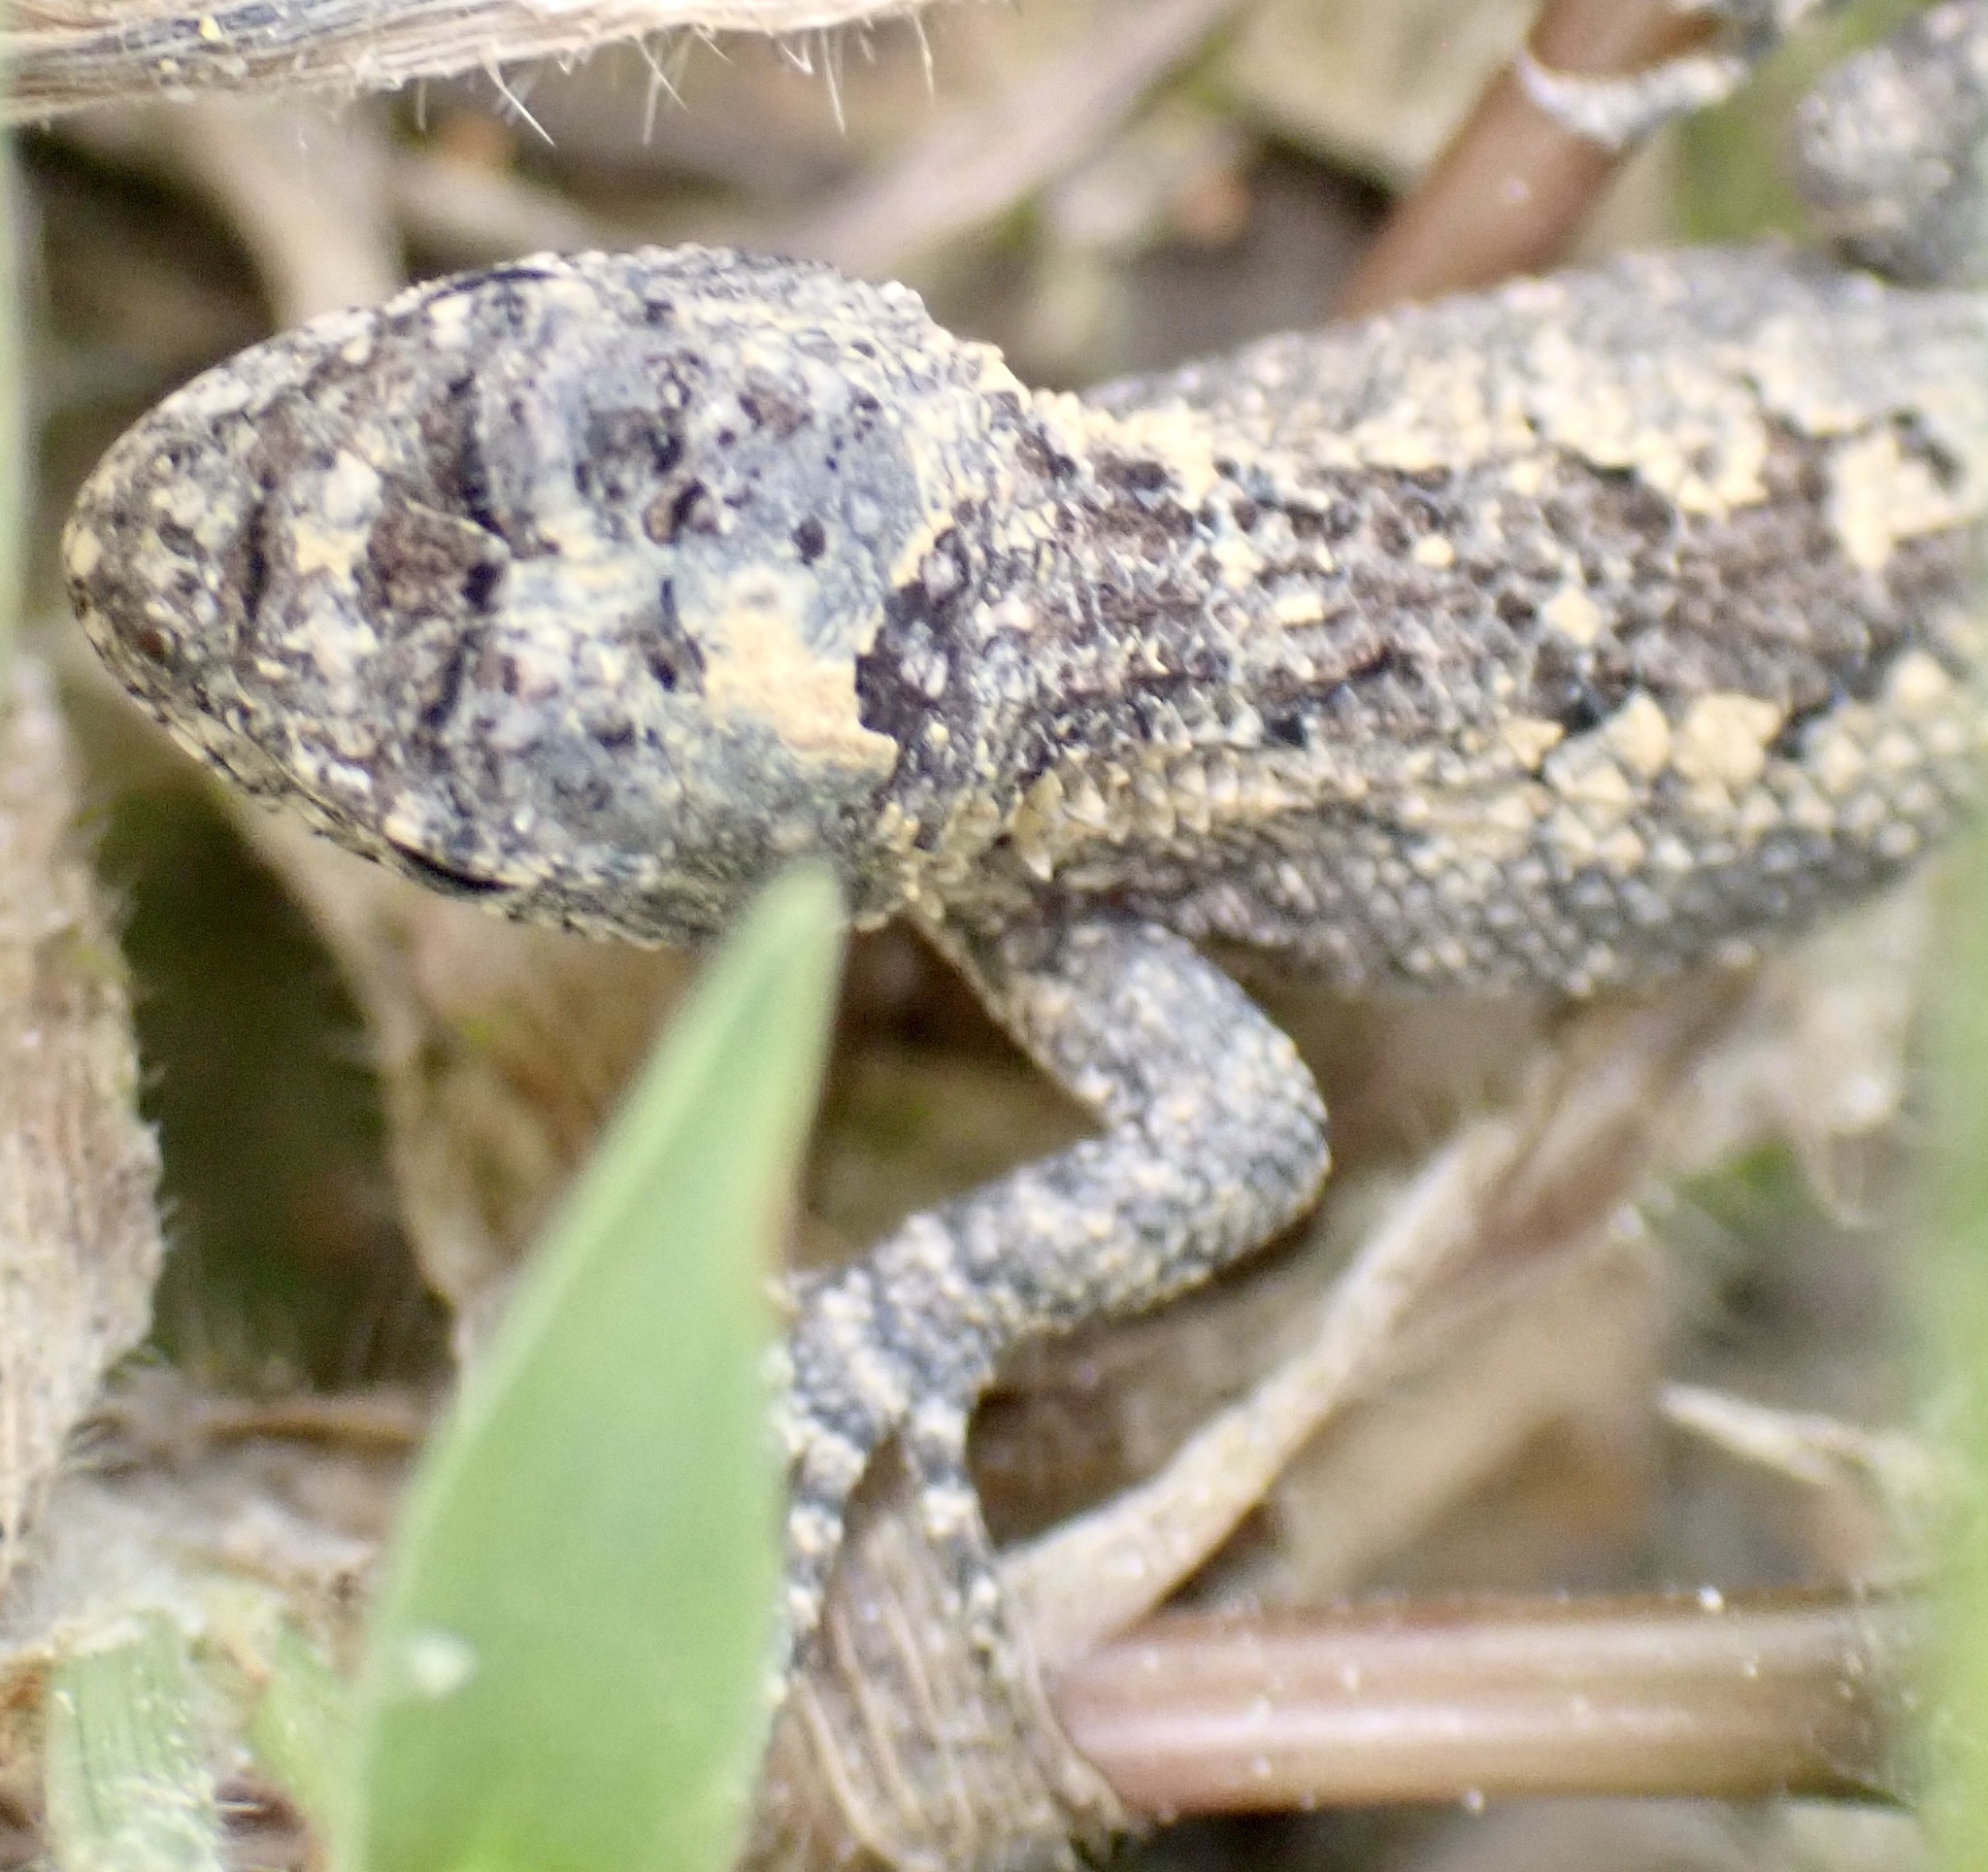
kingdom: Animalia
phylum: Chordata
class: Squamata
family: Phrynosomatidae
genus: Sceloporus
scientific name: Sceloporus undulatus
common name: Eastern fence lizard
